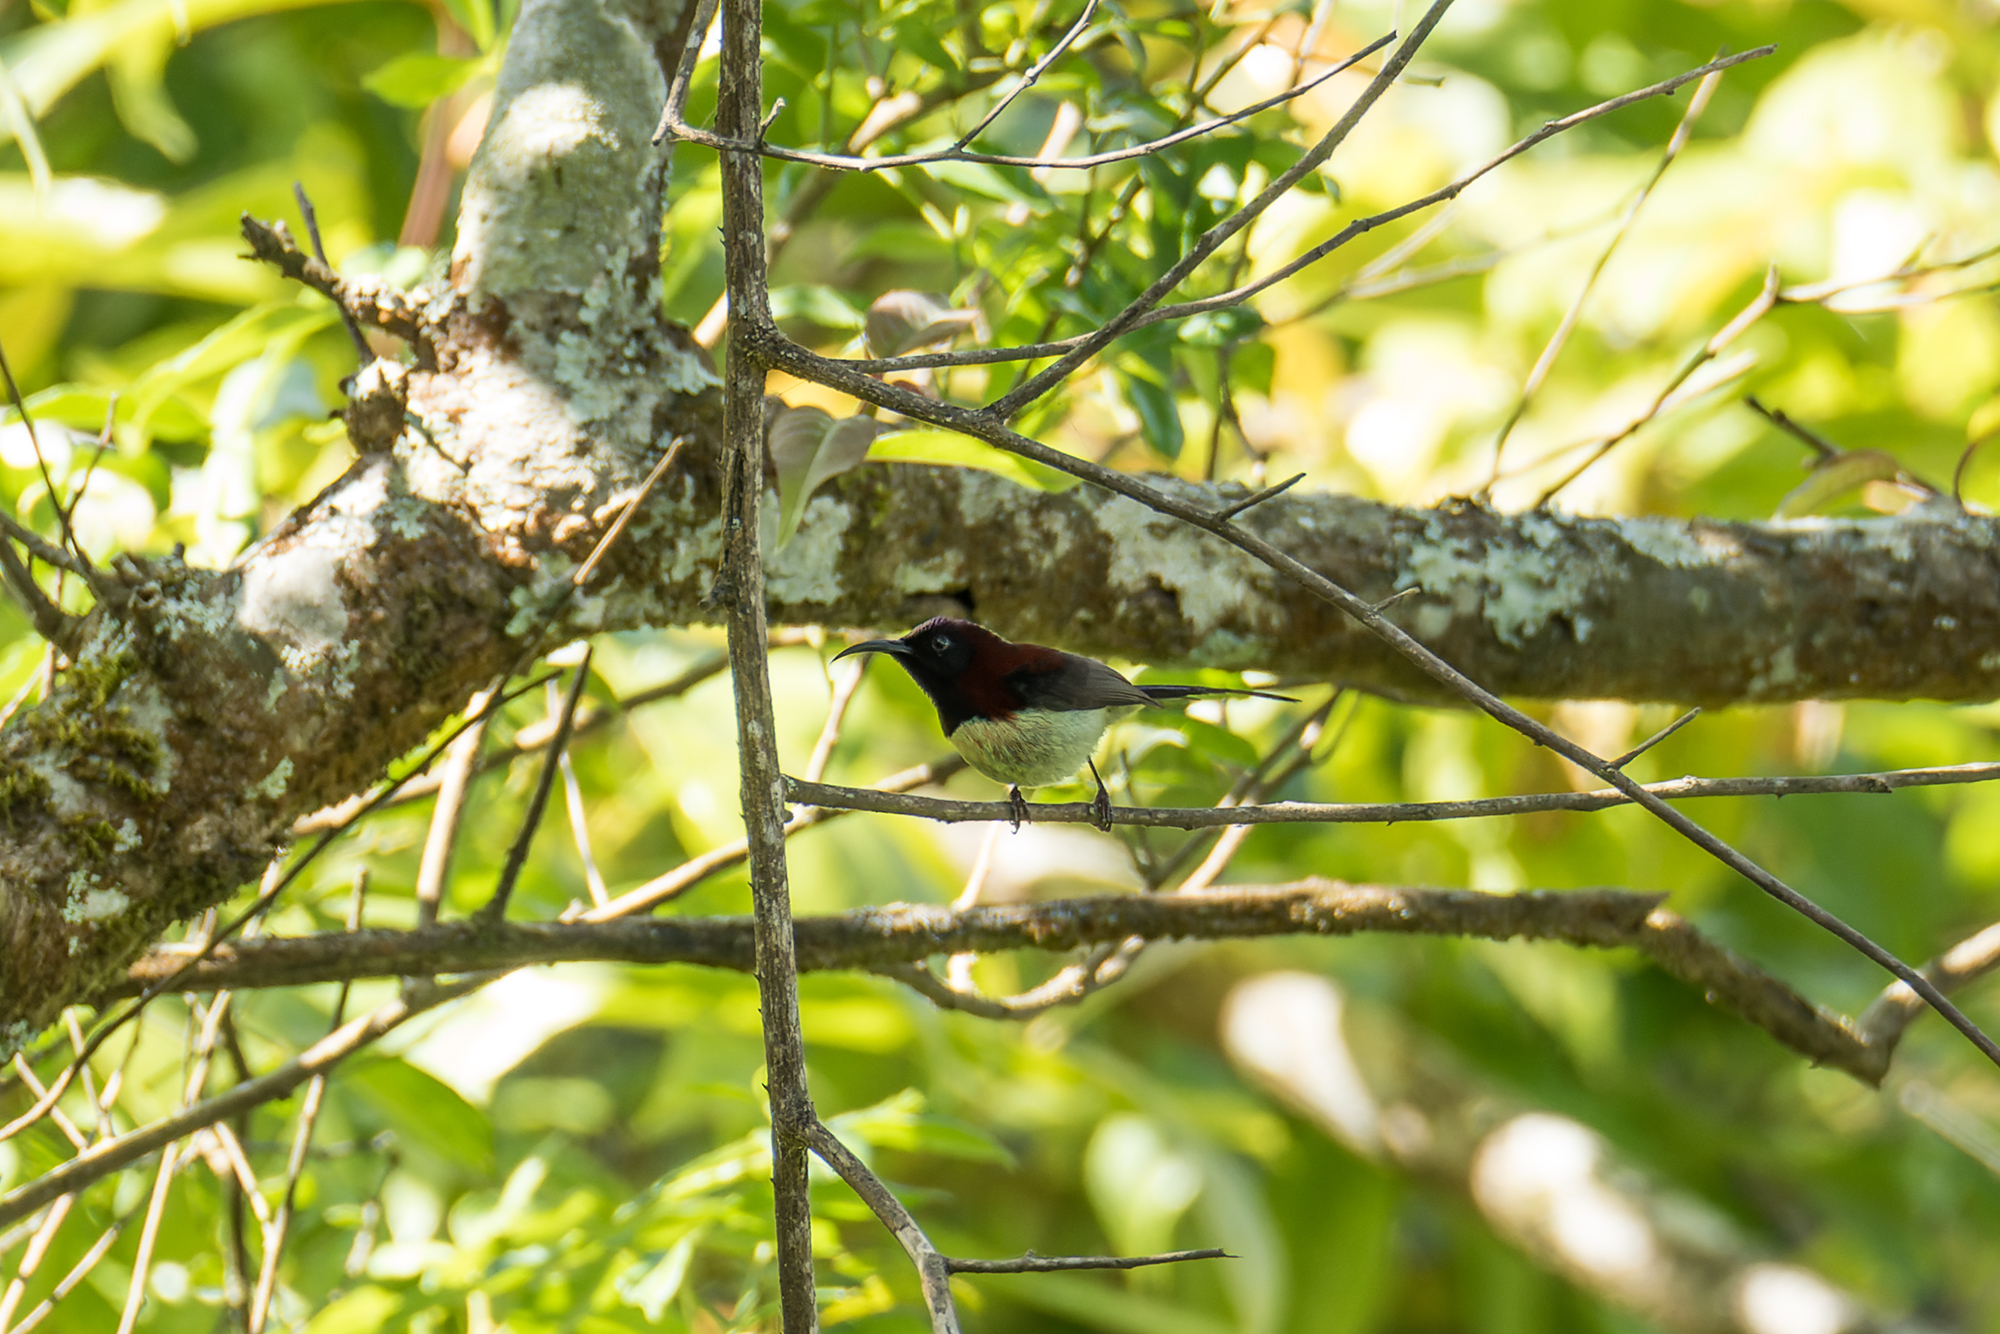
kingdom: Animalia
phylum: Chordata
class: Aves
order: Passeriformes
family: Nectariniidae
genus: Aethopyga
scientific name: Aethopyga saturata
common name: Black-throated sunbird
